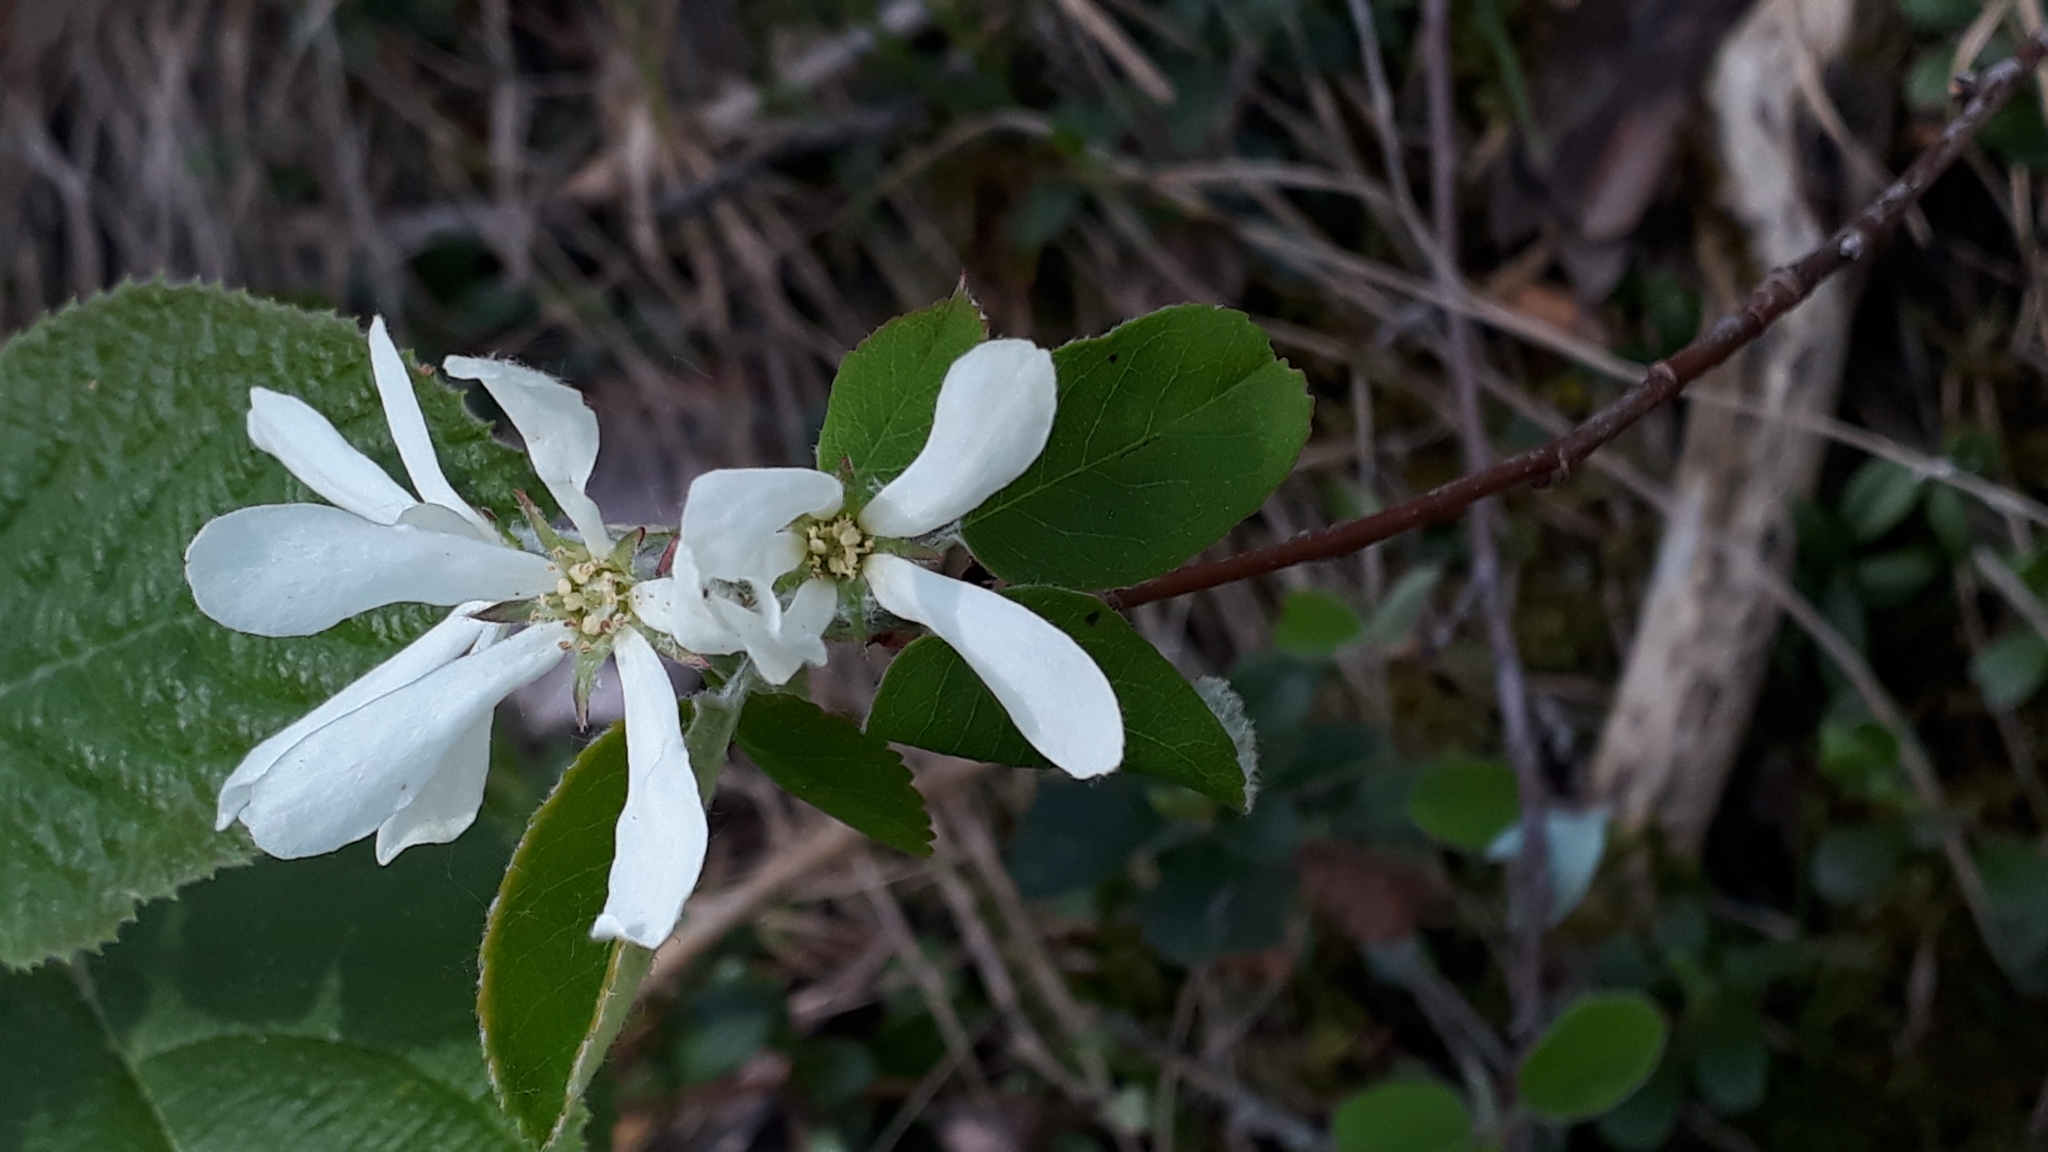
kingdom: Plantae
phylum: Tracheophyta
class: Magnoliopsida
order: Rosales
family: Rosaceae
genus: Amelanchier
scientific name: Amelanchier ovalis
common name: Serviceberry
